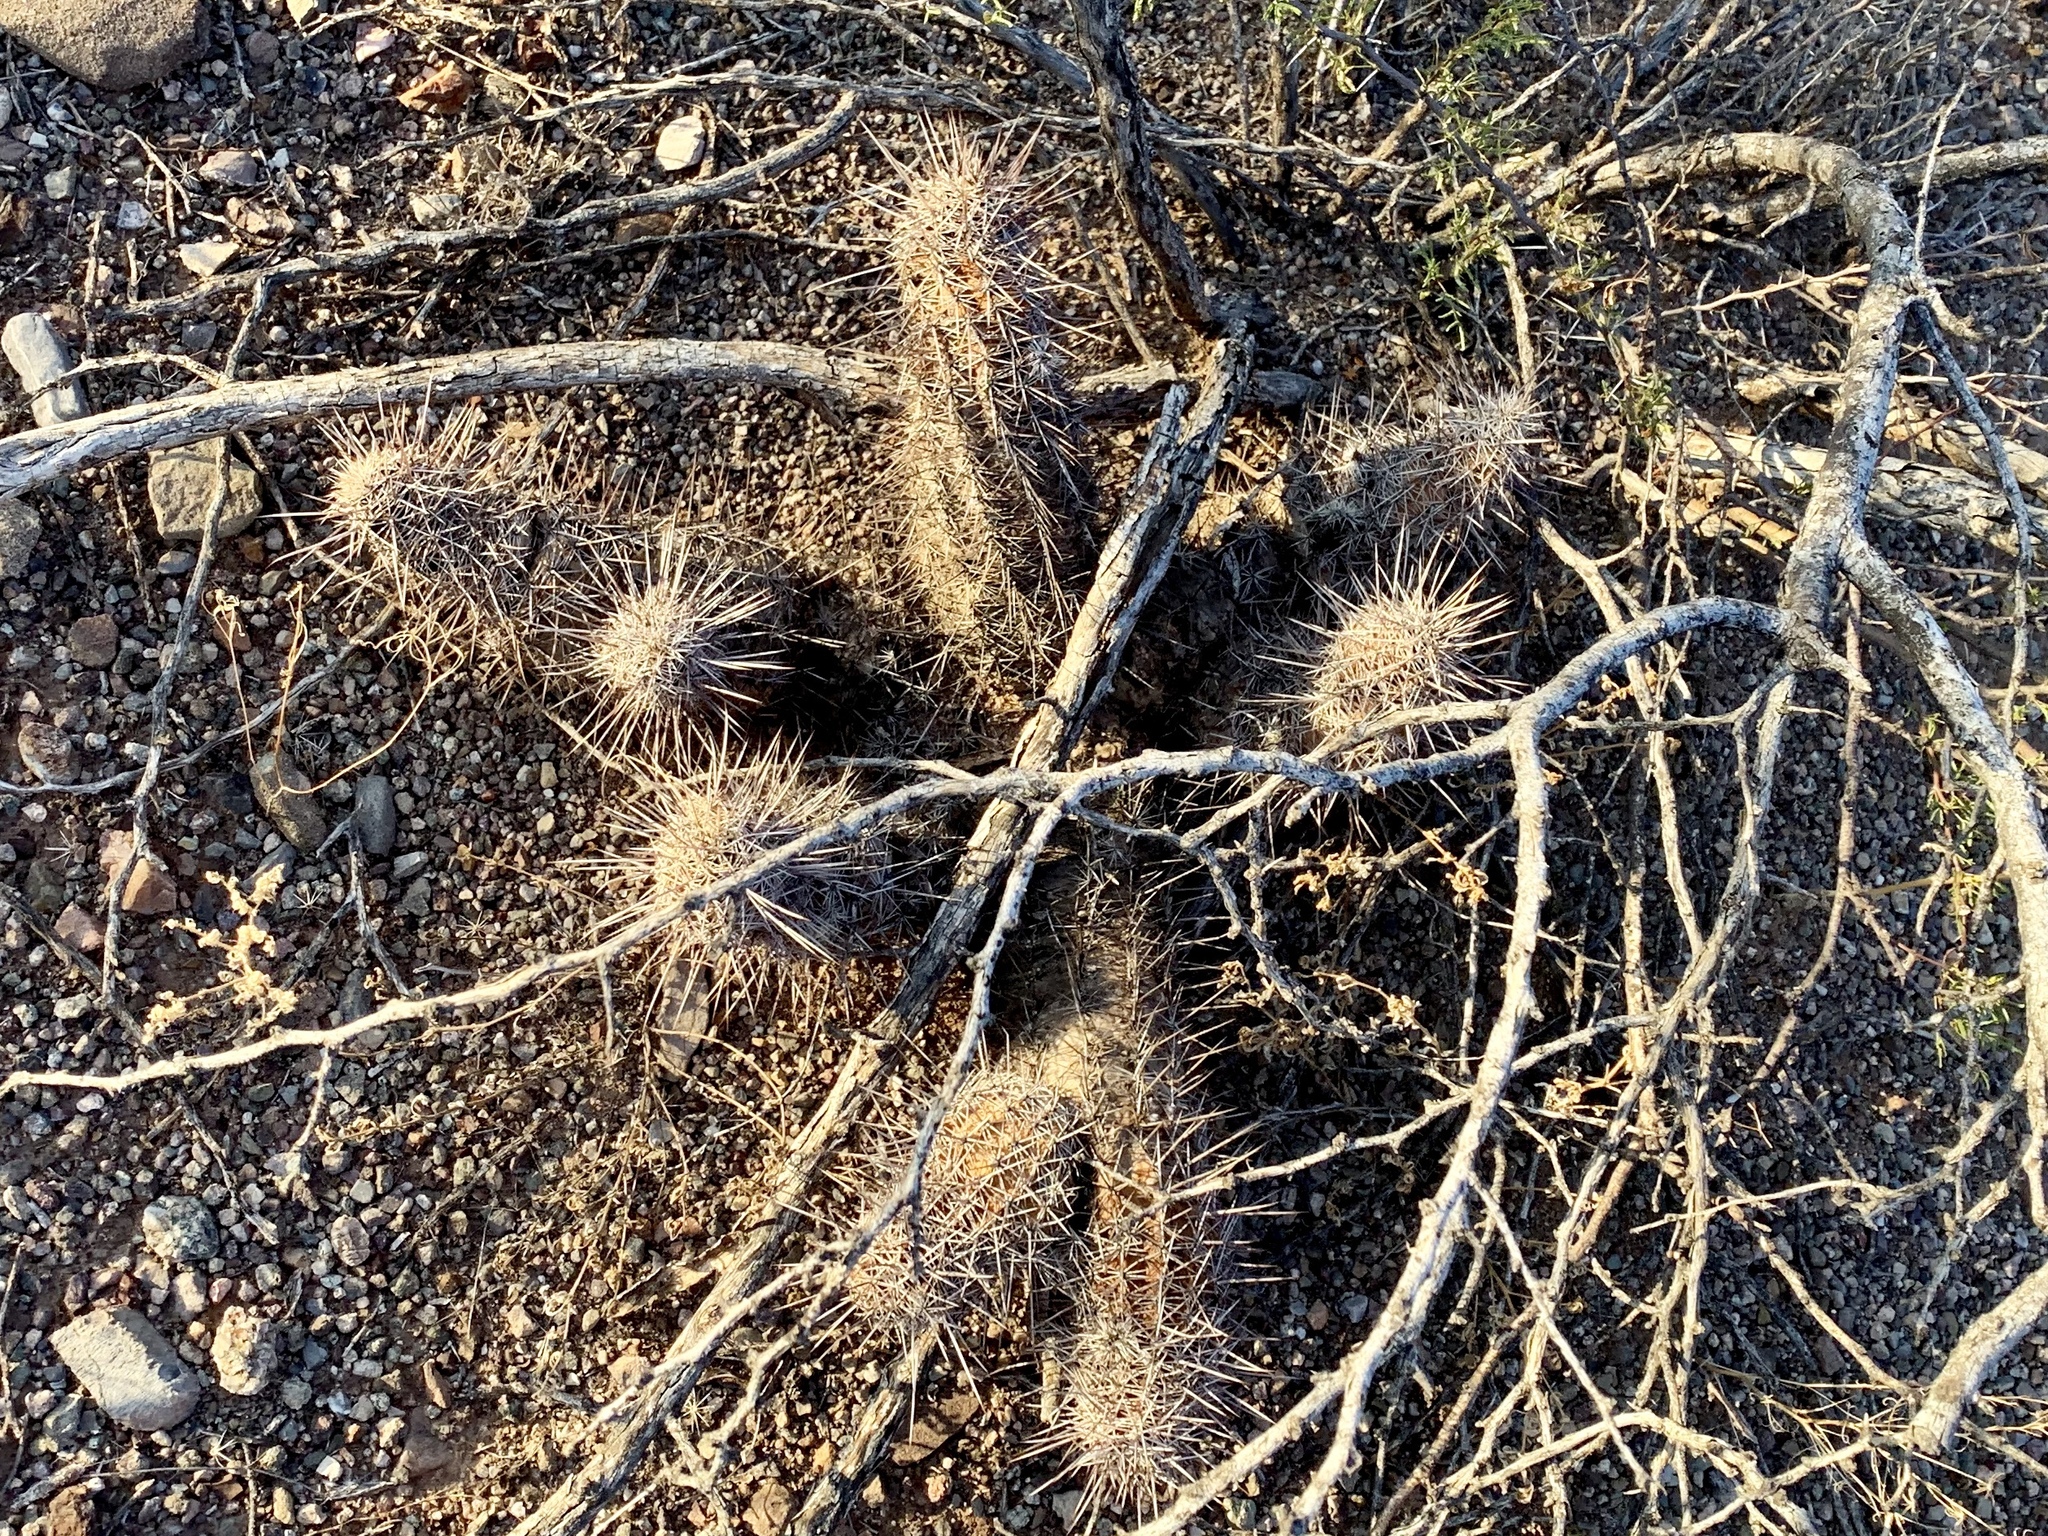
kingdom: Plantae
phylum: Tracheophyta
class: Magnoliopsida
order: Caryophyllales
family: Cactaceae
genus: Echinocereus
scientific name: Echinocereus fasciculatus
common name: Bundle hedgehog
